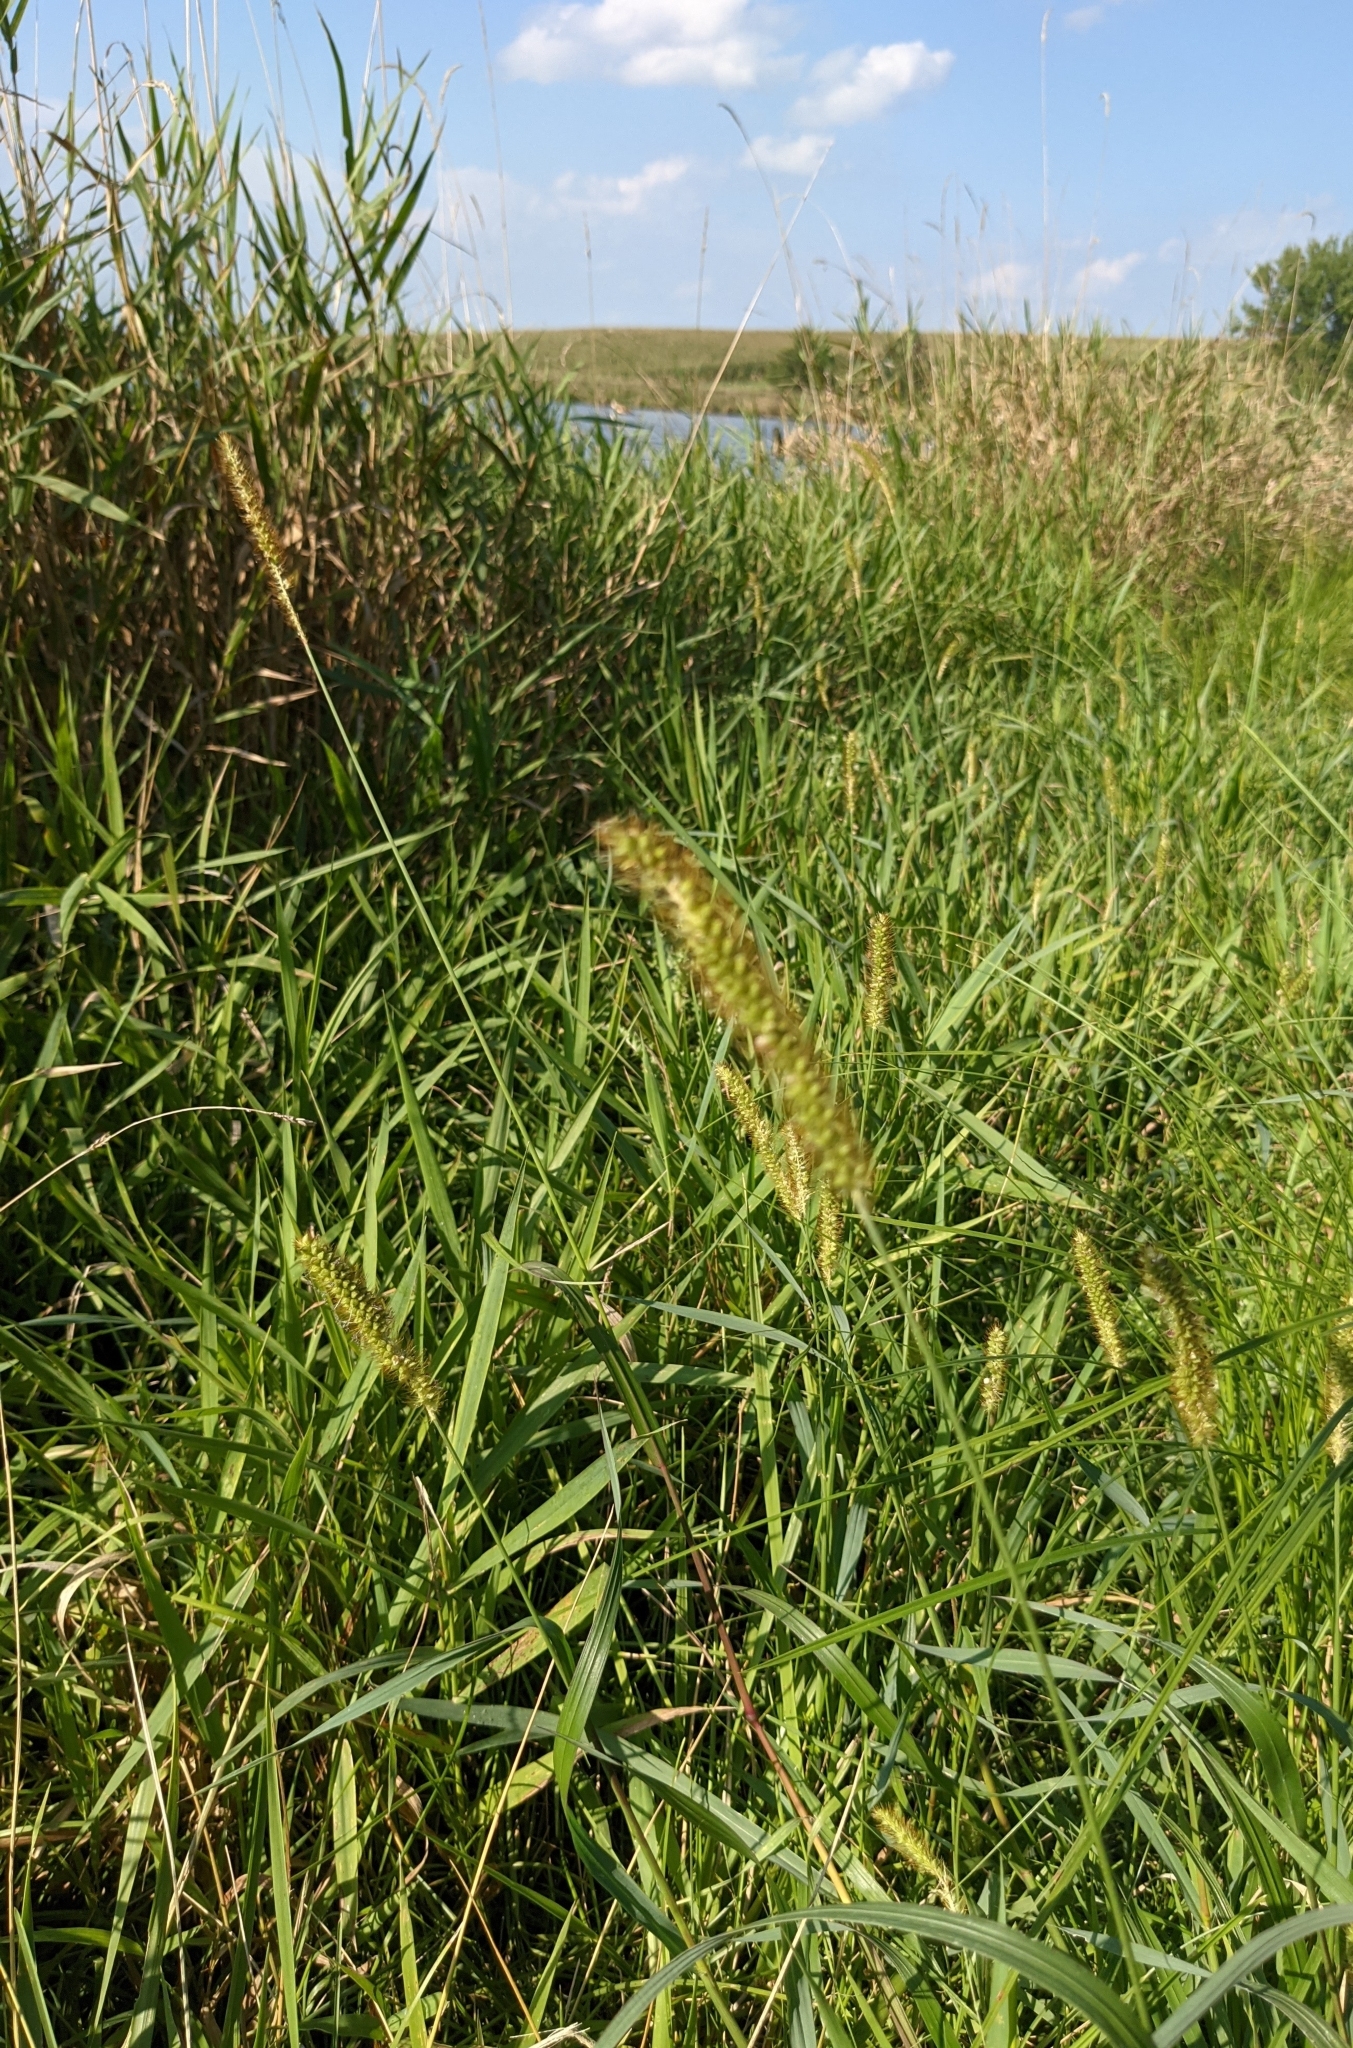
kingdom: Plantae
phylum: Tracheophyta
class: Liliopsida
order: Poales
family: Poaceae
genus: Setaria
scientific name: Setaria pumila
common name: Yellow bristle-grass
